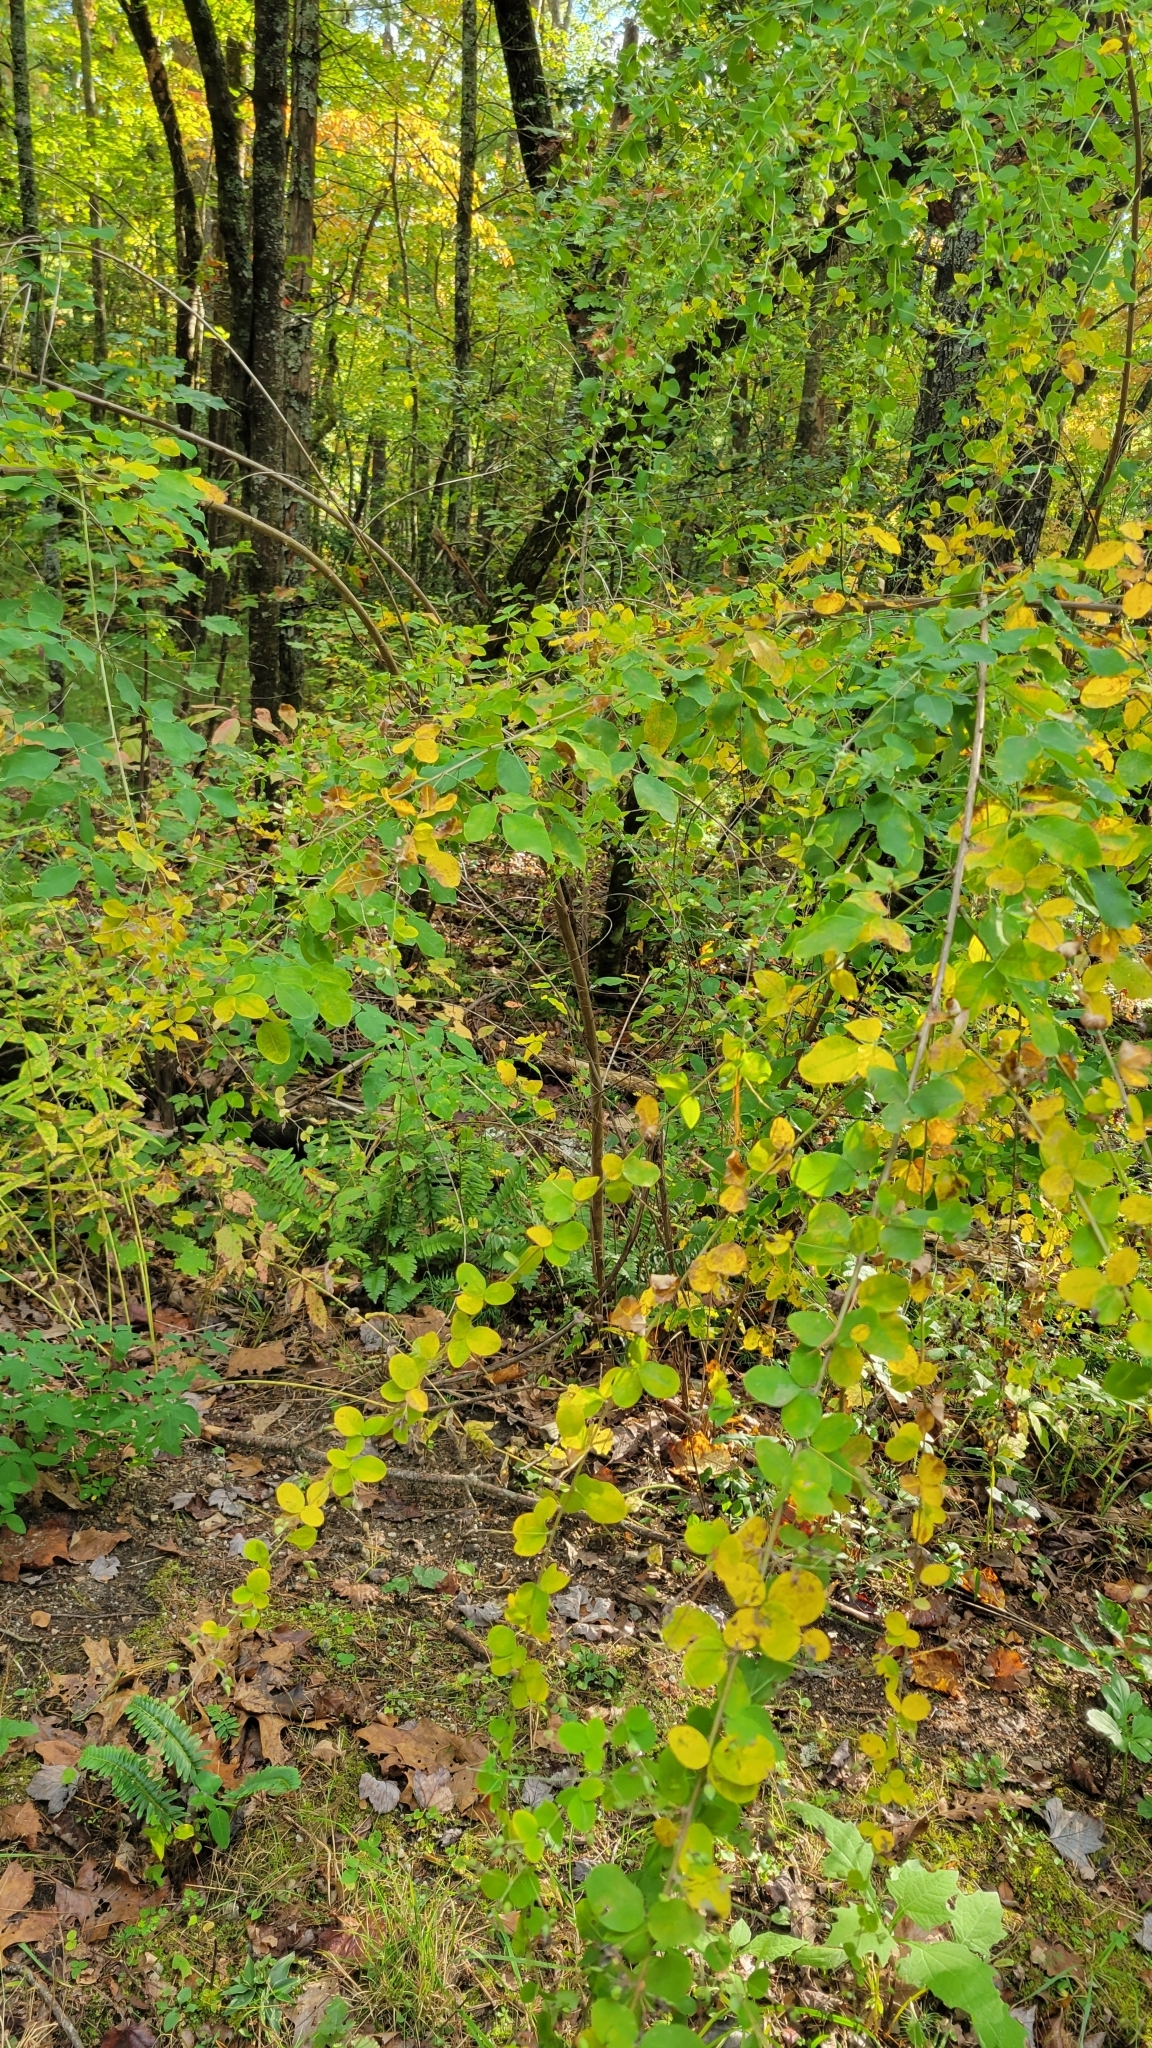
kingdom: Plantae
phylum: Tracheophyta
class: Magnoliopsida
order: Fabales
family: Fabaceae
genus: Lespedeza
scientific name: Lespedeza bicolor
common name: Shrub lespedeza
